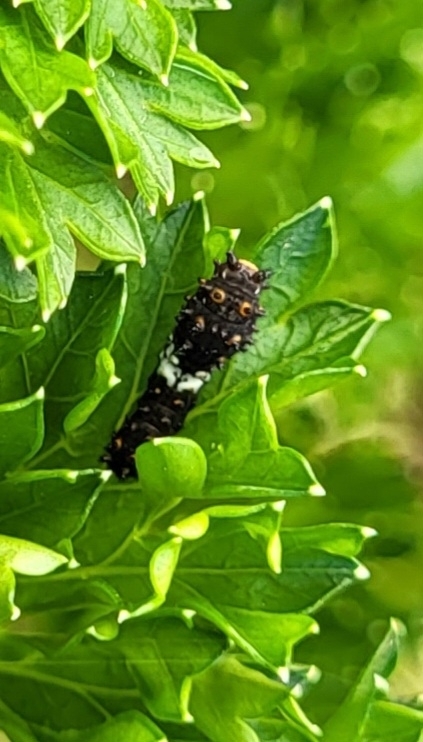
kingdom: Animalia
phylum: Arthropoda
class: Insecta
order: Lepidoptera
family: Papilionidae
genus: Papilio
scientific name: Papilio polyxenes
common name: Black swallowtail
